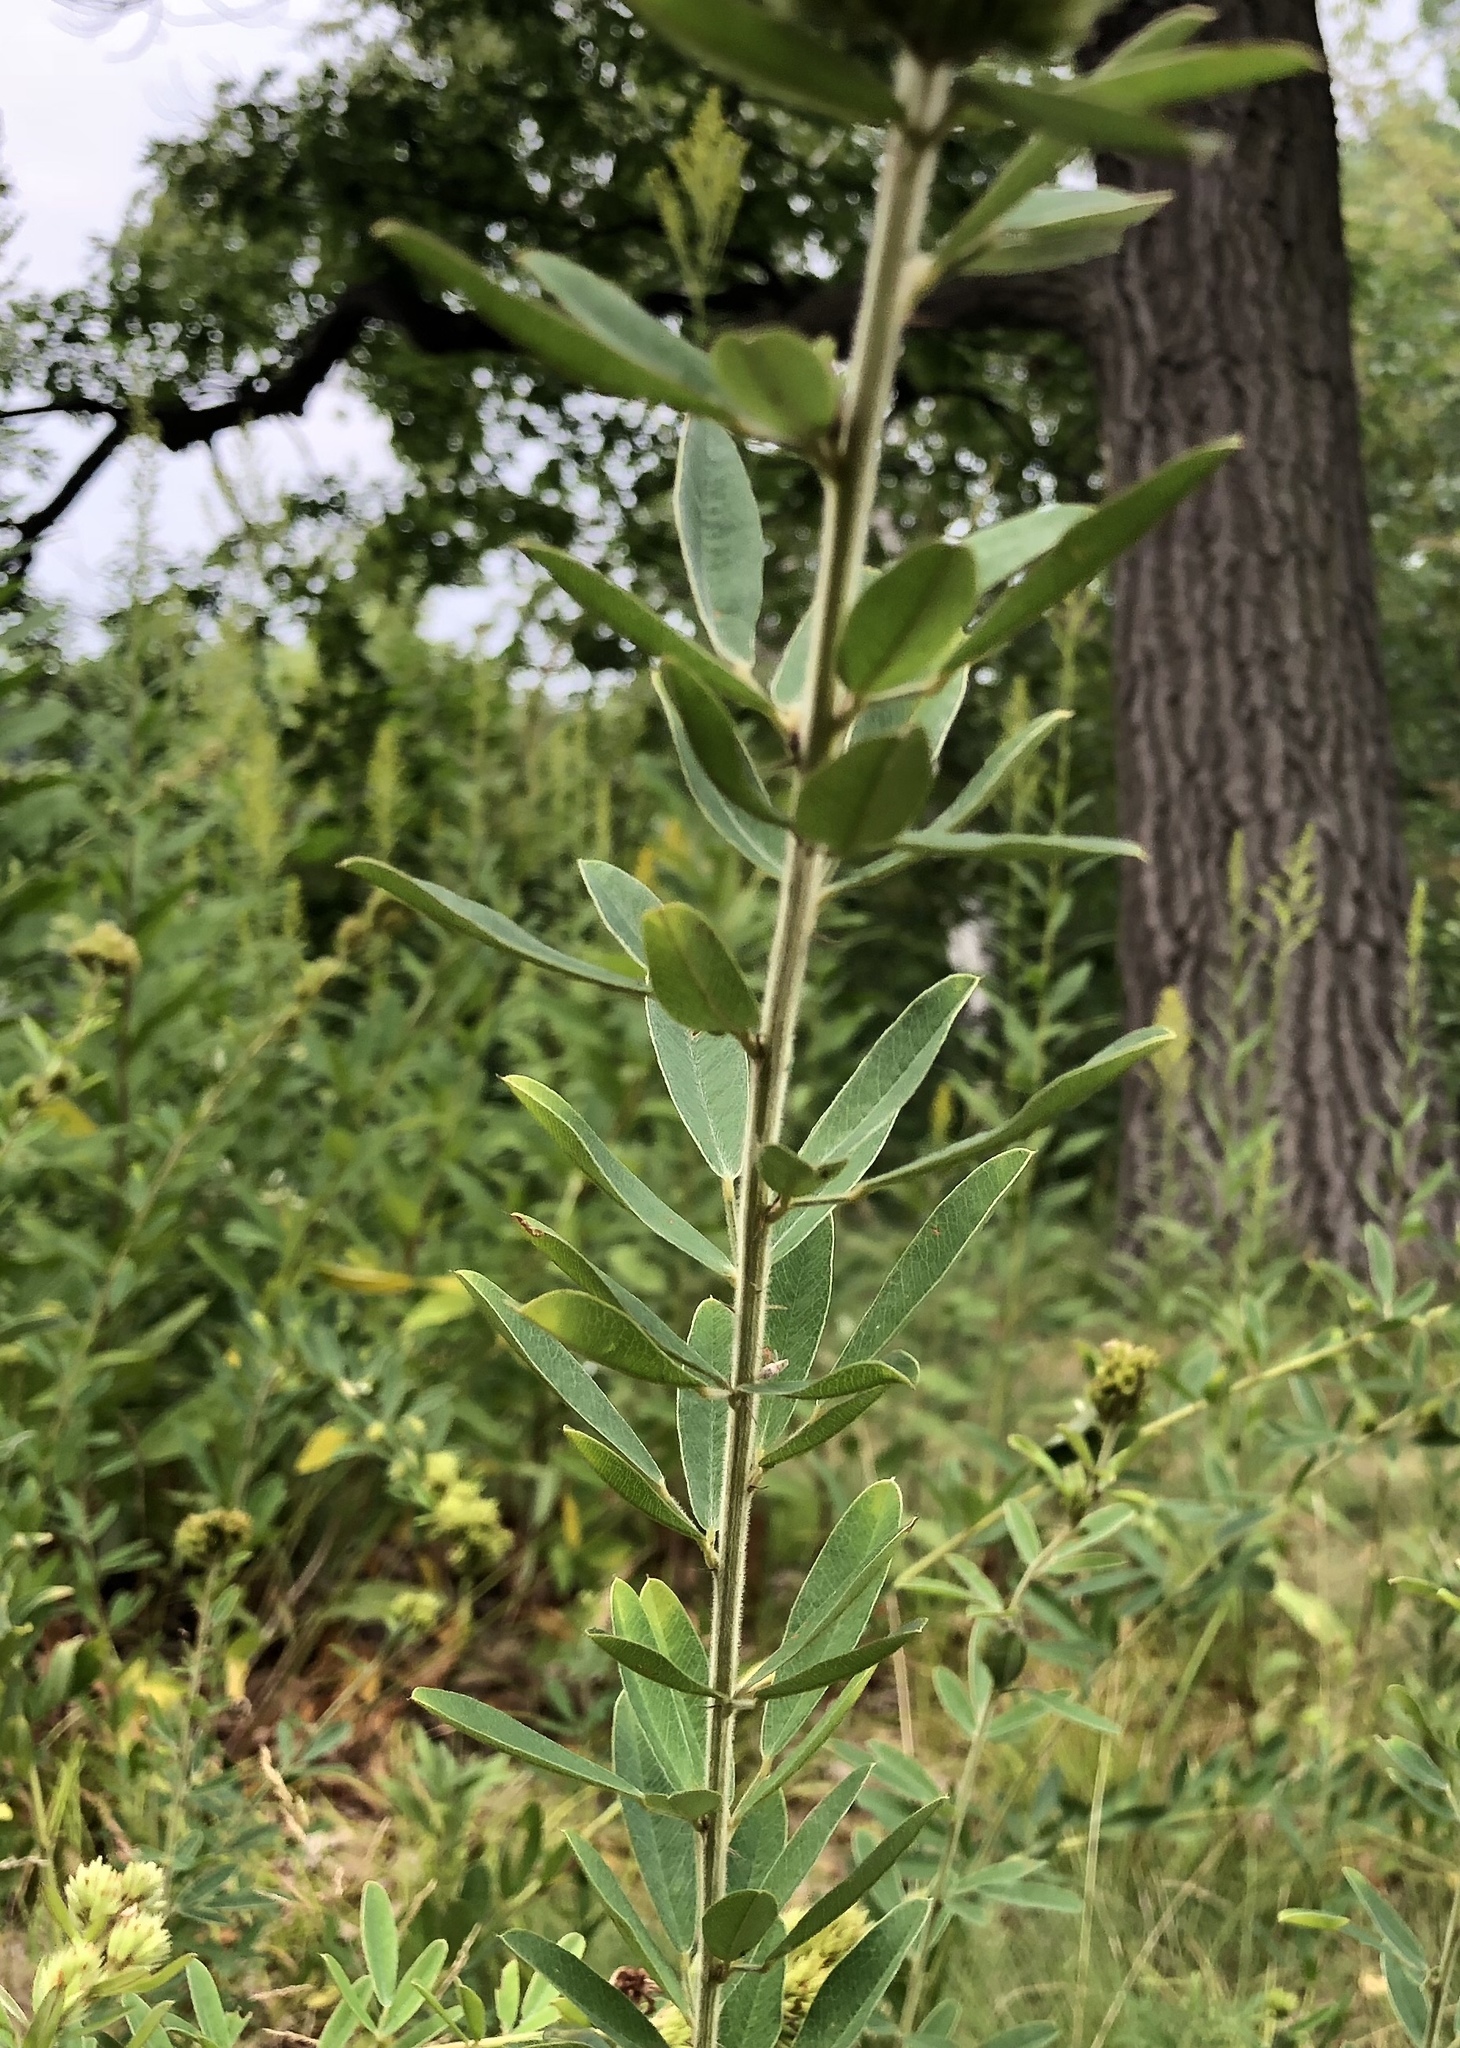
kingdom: Plantae
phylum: Tracheophyta
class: Magnoliopsida
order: Fabales
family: Fabaceae
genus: Lespedeza
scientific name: Lespedeza capitata
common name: Dusty clover
